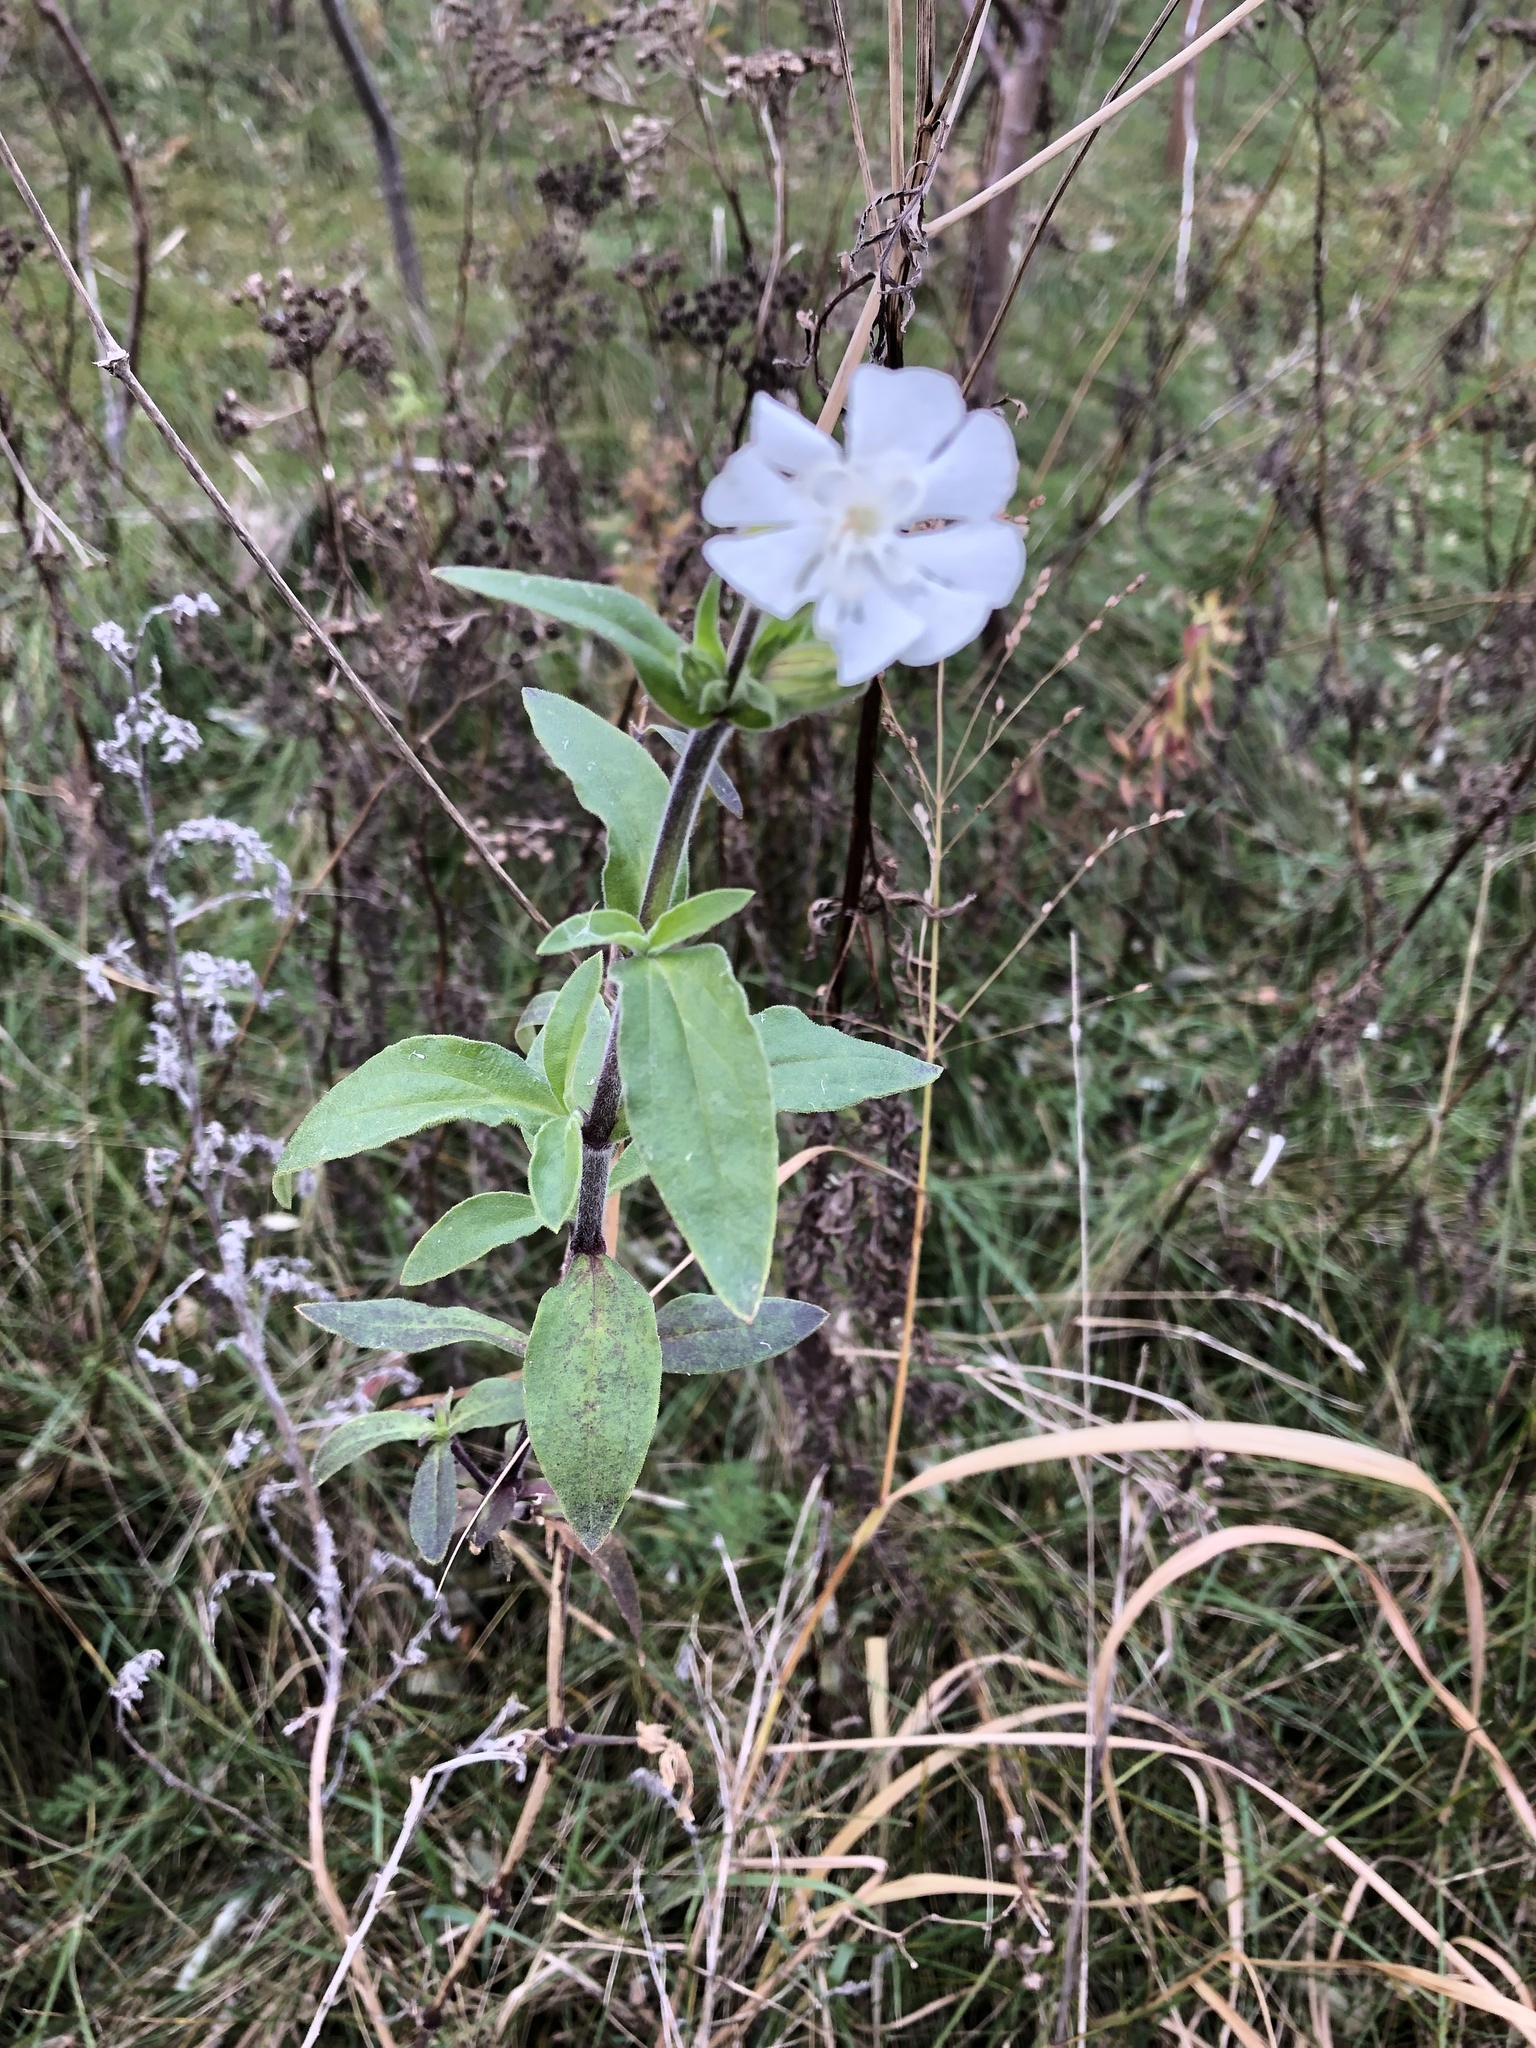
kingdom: Plantae
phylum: Tracheophyta
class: Magnoliopsida
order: Caryophyllales
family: Caryophyllaceae
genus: Silene
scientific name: Silene latifolia
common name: White campion
